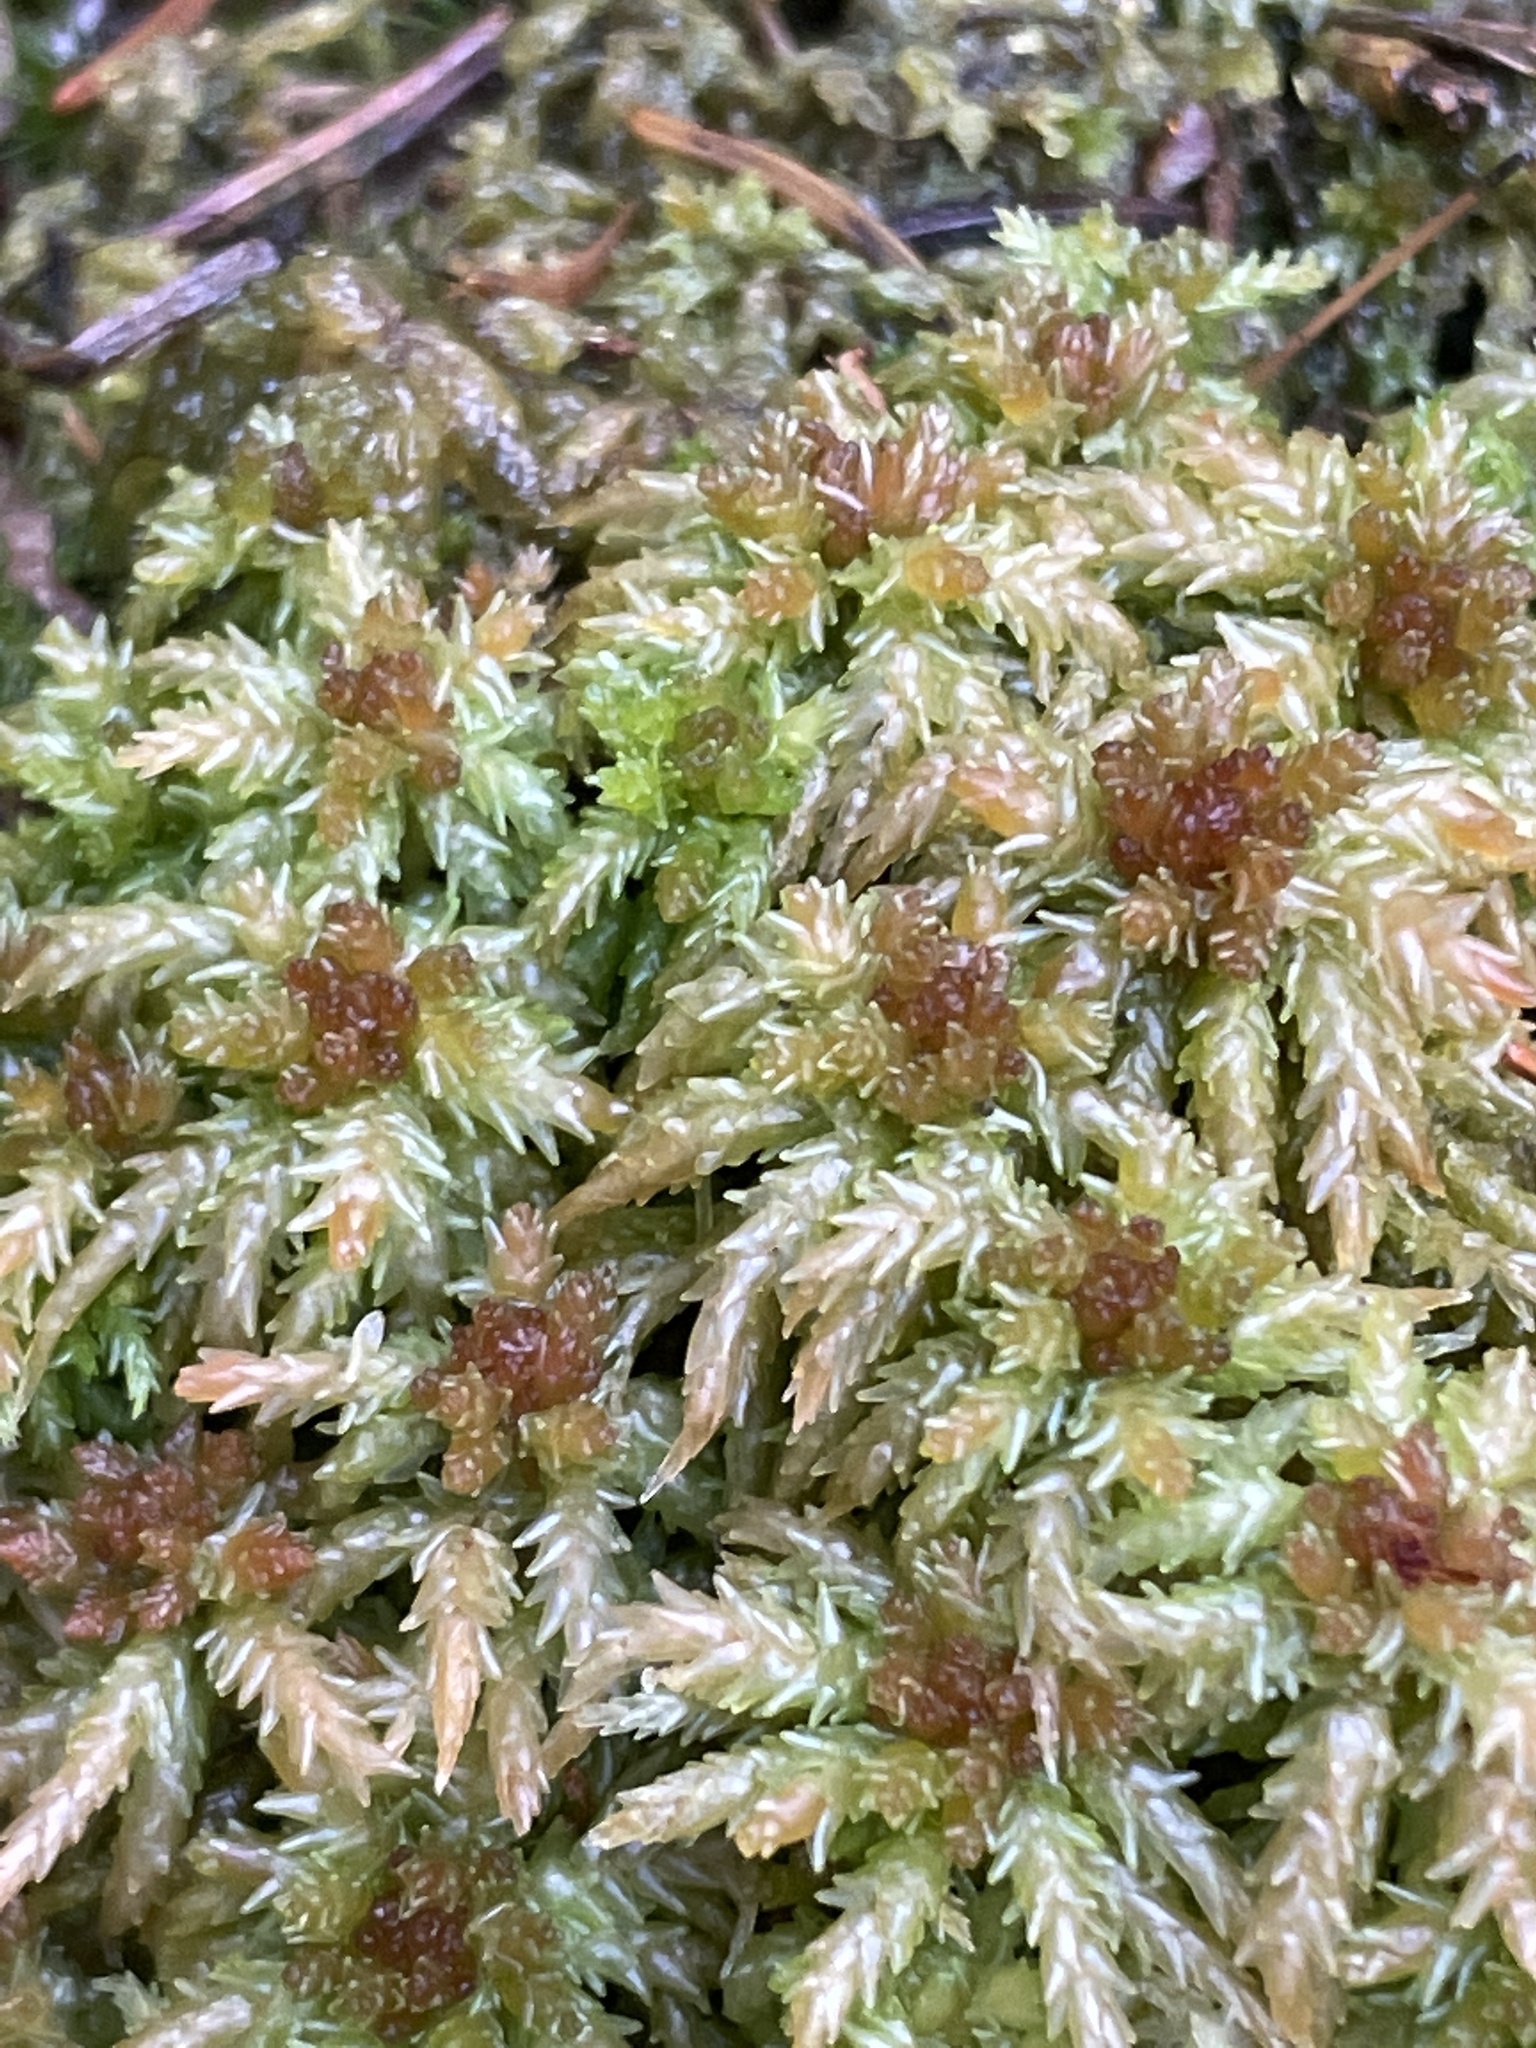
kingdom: Plantae
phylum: Bryophyta
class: Sphagnopsida
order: Sphagnales
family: Sphagnaceae
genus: Sphagnum
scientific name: Sphagnum palustre
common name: Blunt-leaved bog-moss
